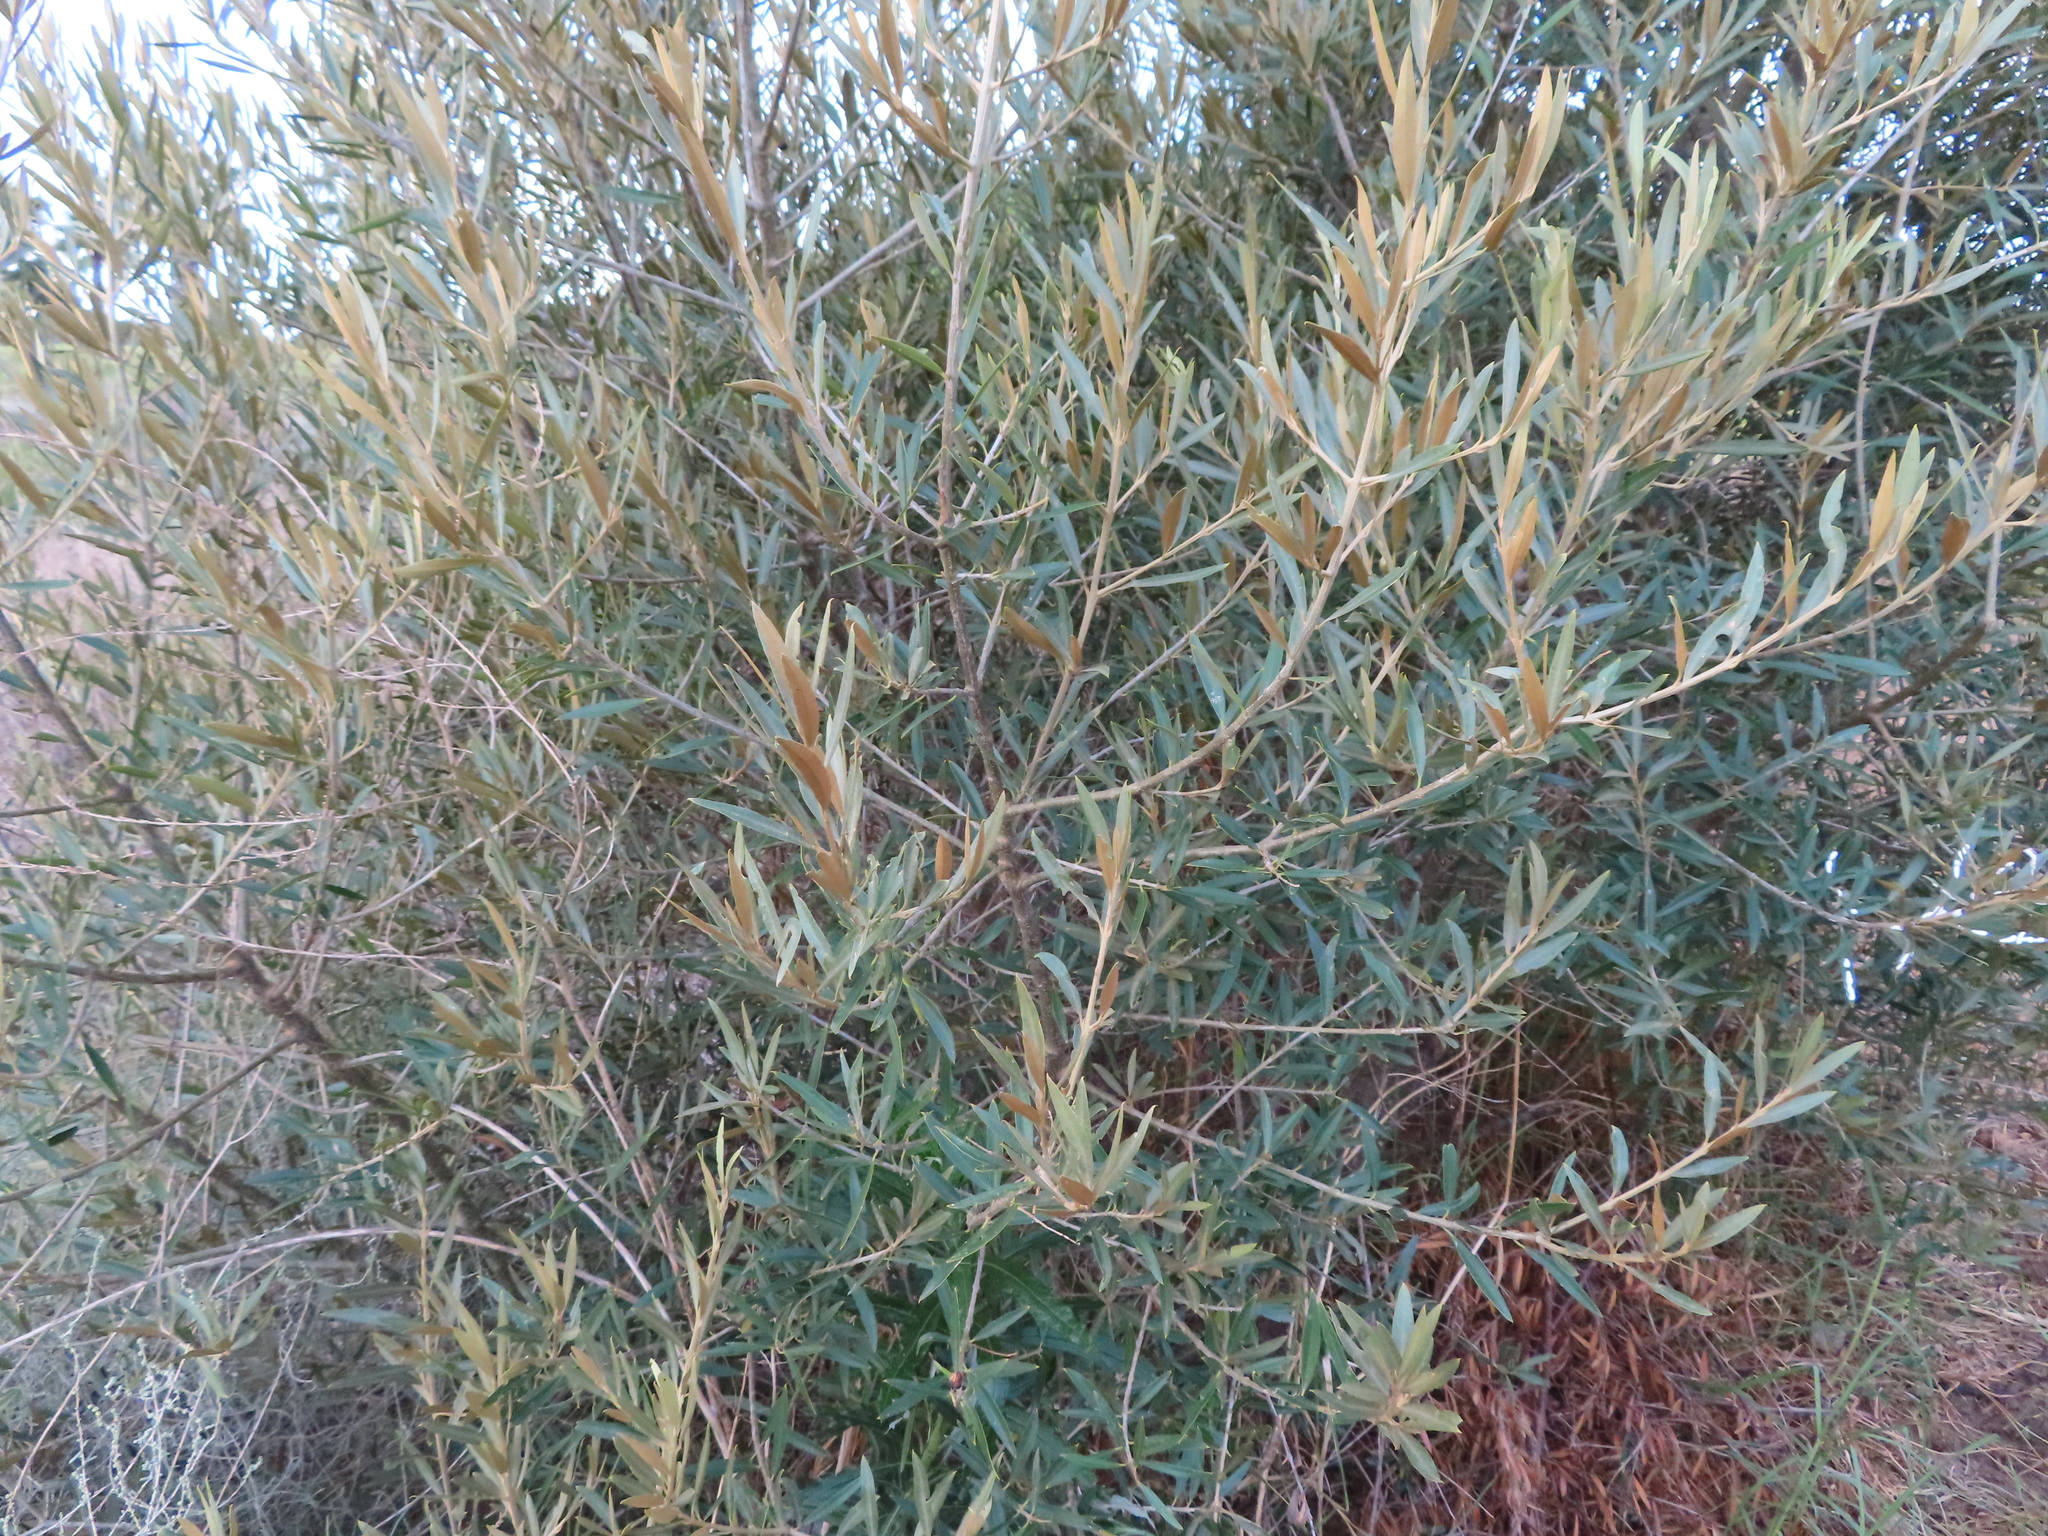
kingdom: Plantae
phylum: Tracheophyta
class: Magnoliopsida
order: Lamiales
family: Oleaceae
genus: Olea
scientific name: Olea europaea
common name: Olive
